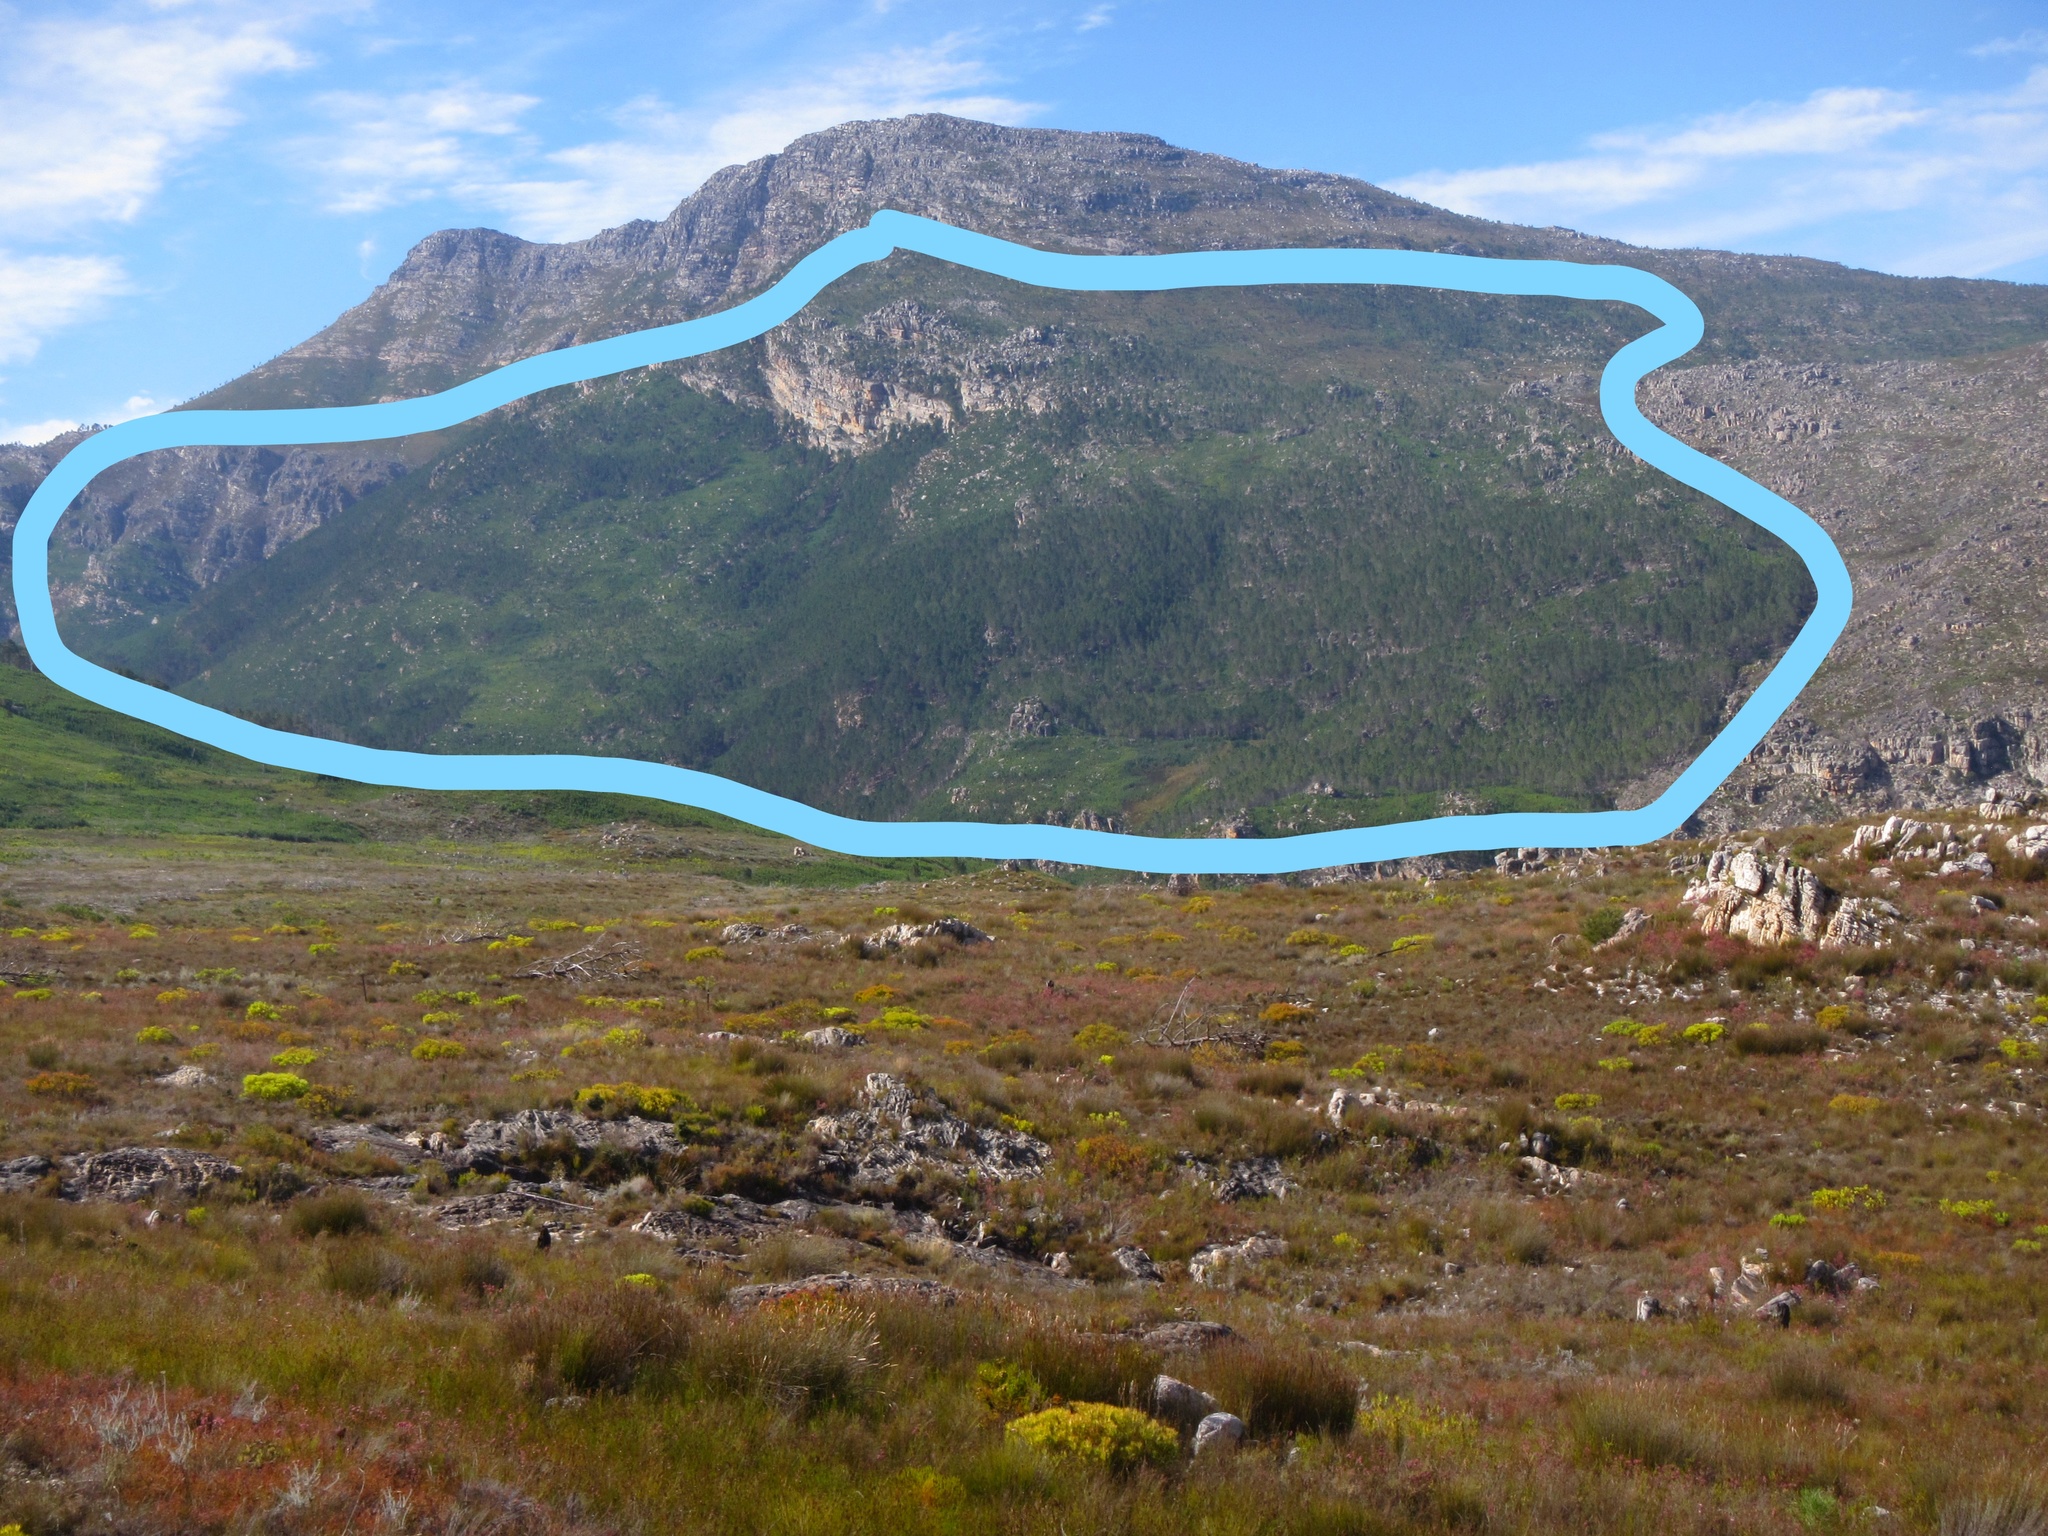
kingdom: Plantae
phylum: Tracheophyta
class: Pinopsida
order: Pinales
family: Pinaceae
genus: Pinus
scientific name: Pinus pinaster
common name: Maritime pine
